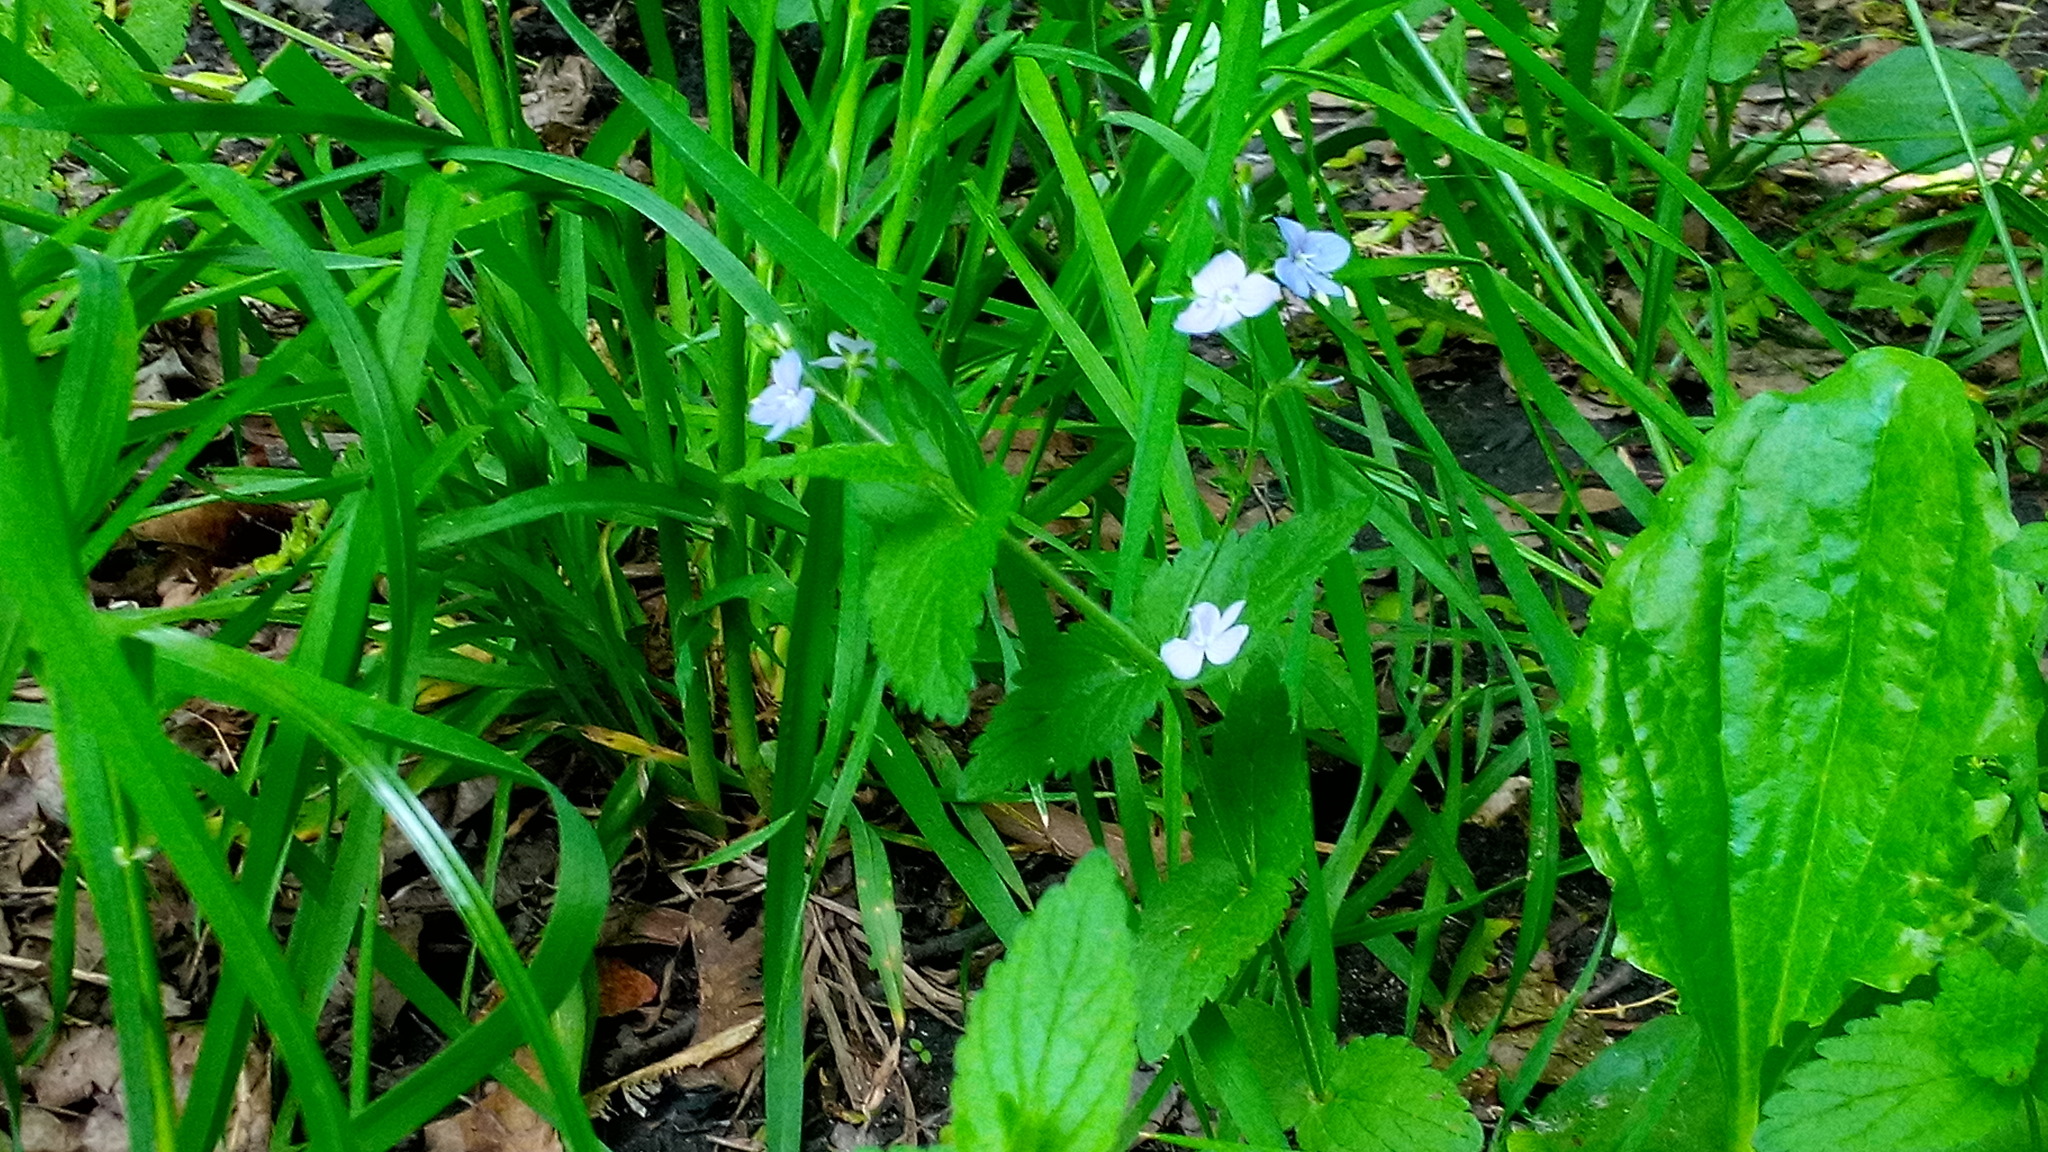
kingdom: Plantae
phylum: Tracheophyta
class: Magnoliopsida
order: Lamiales
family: Plantaginaceae
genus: Veronica
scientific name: Veronica chamaedrys
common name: Germander speedwell
